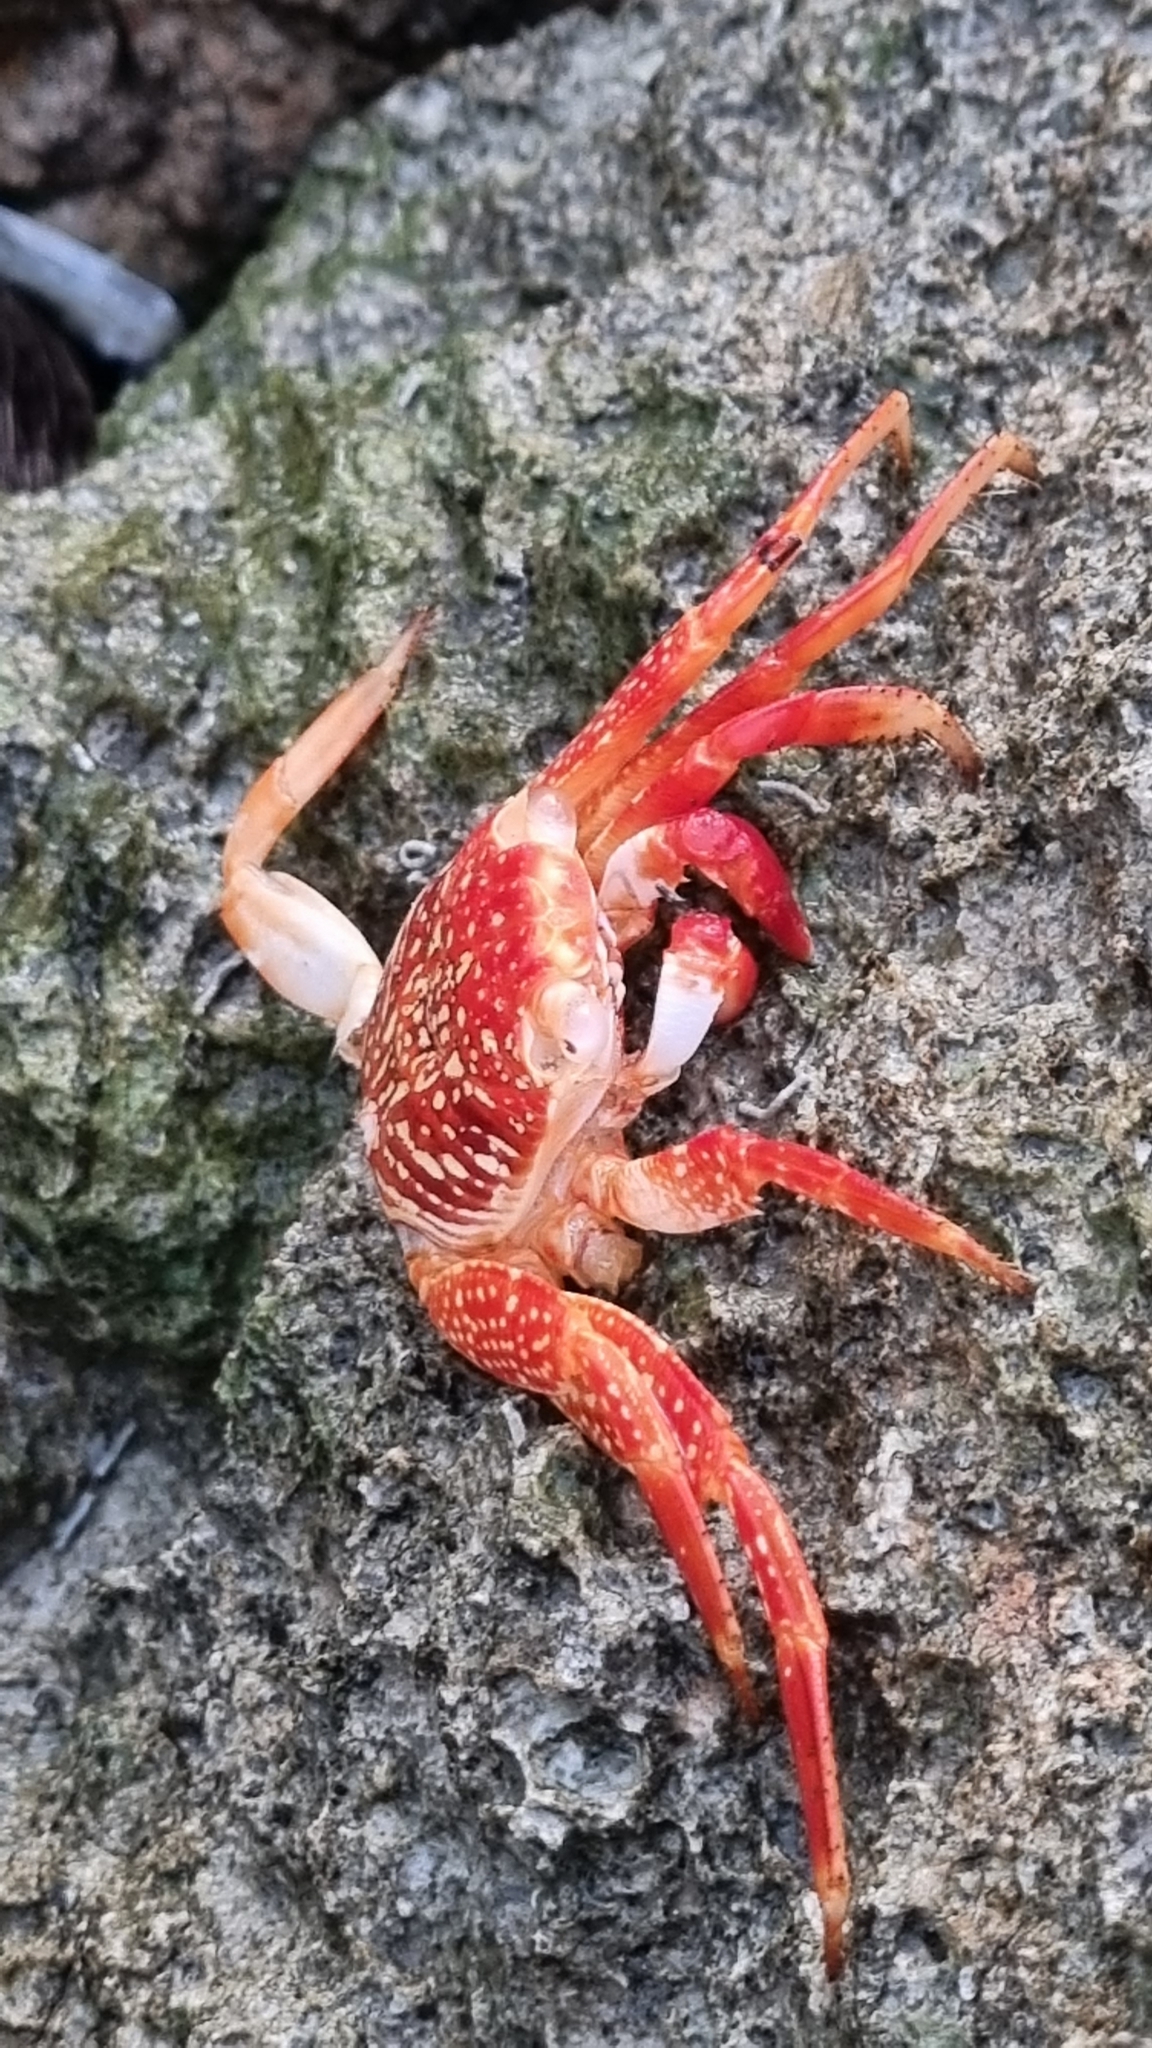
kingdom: Animalia
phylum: Arthropoda
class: Malacostraca
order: Decapoda
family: Grapsidae
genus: Grapsus
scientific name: Grapsus grapsus
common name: Sally lightfoot
